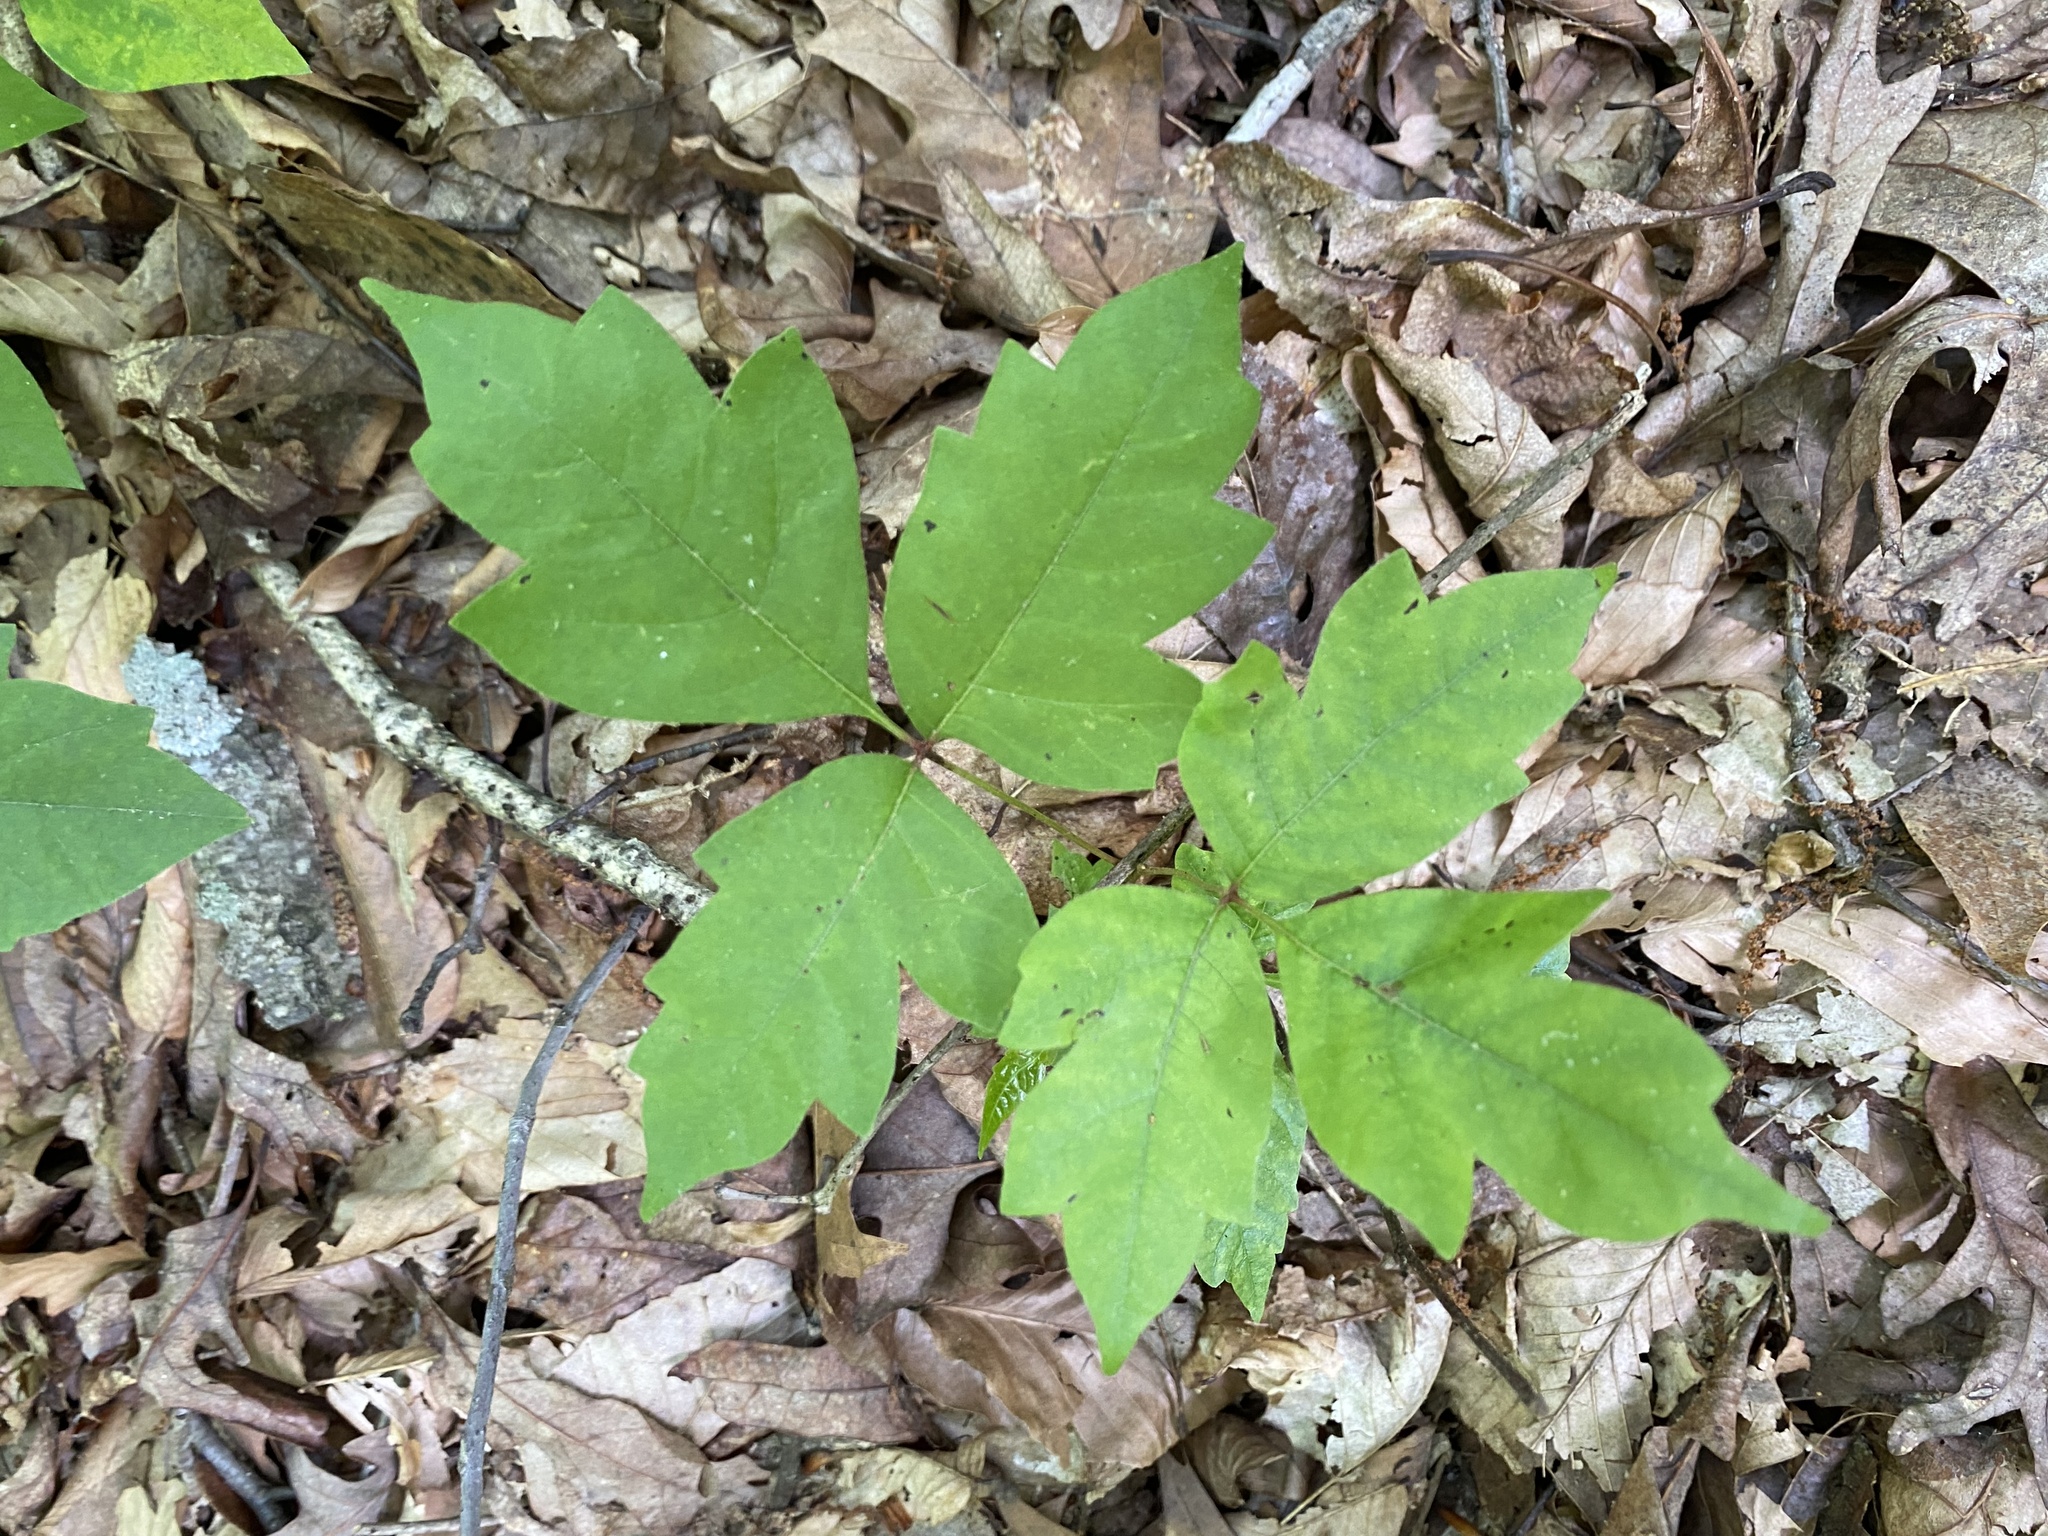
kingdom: Plantae
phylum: Tracheophyta
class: Magnoliopsida
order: Sapindales
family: Anacardiaceae
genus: Toxicodendron
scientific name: Toxicodendron radicans
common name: Poison ivy
